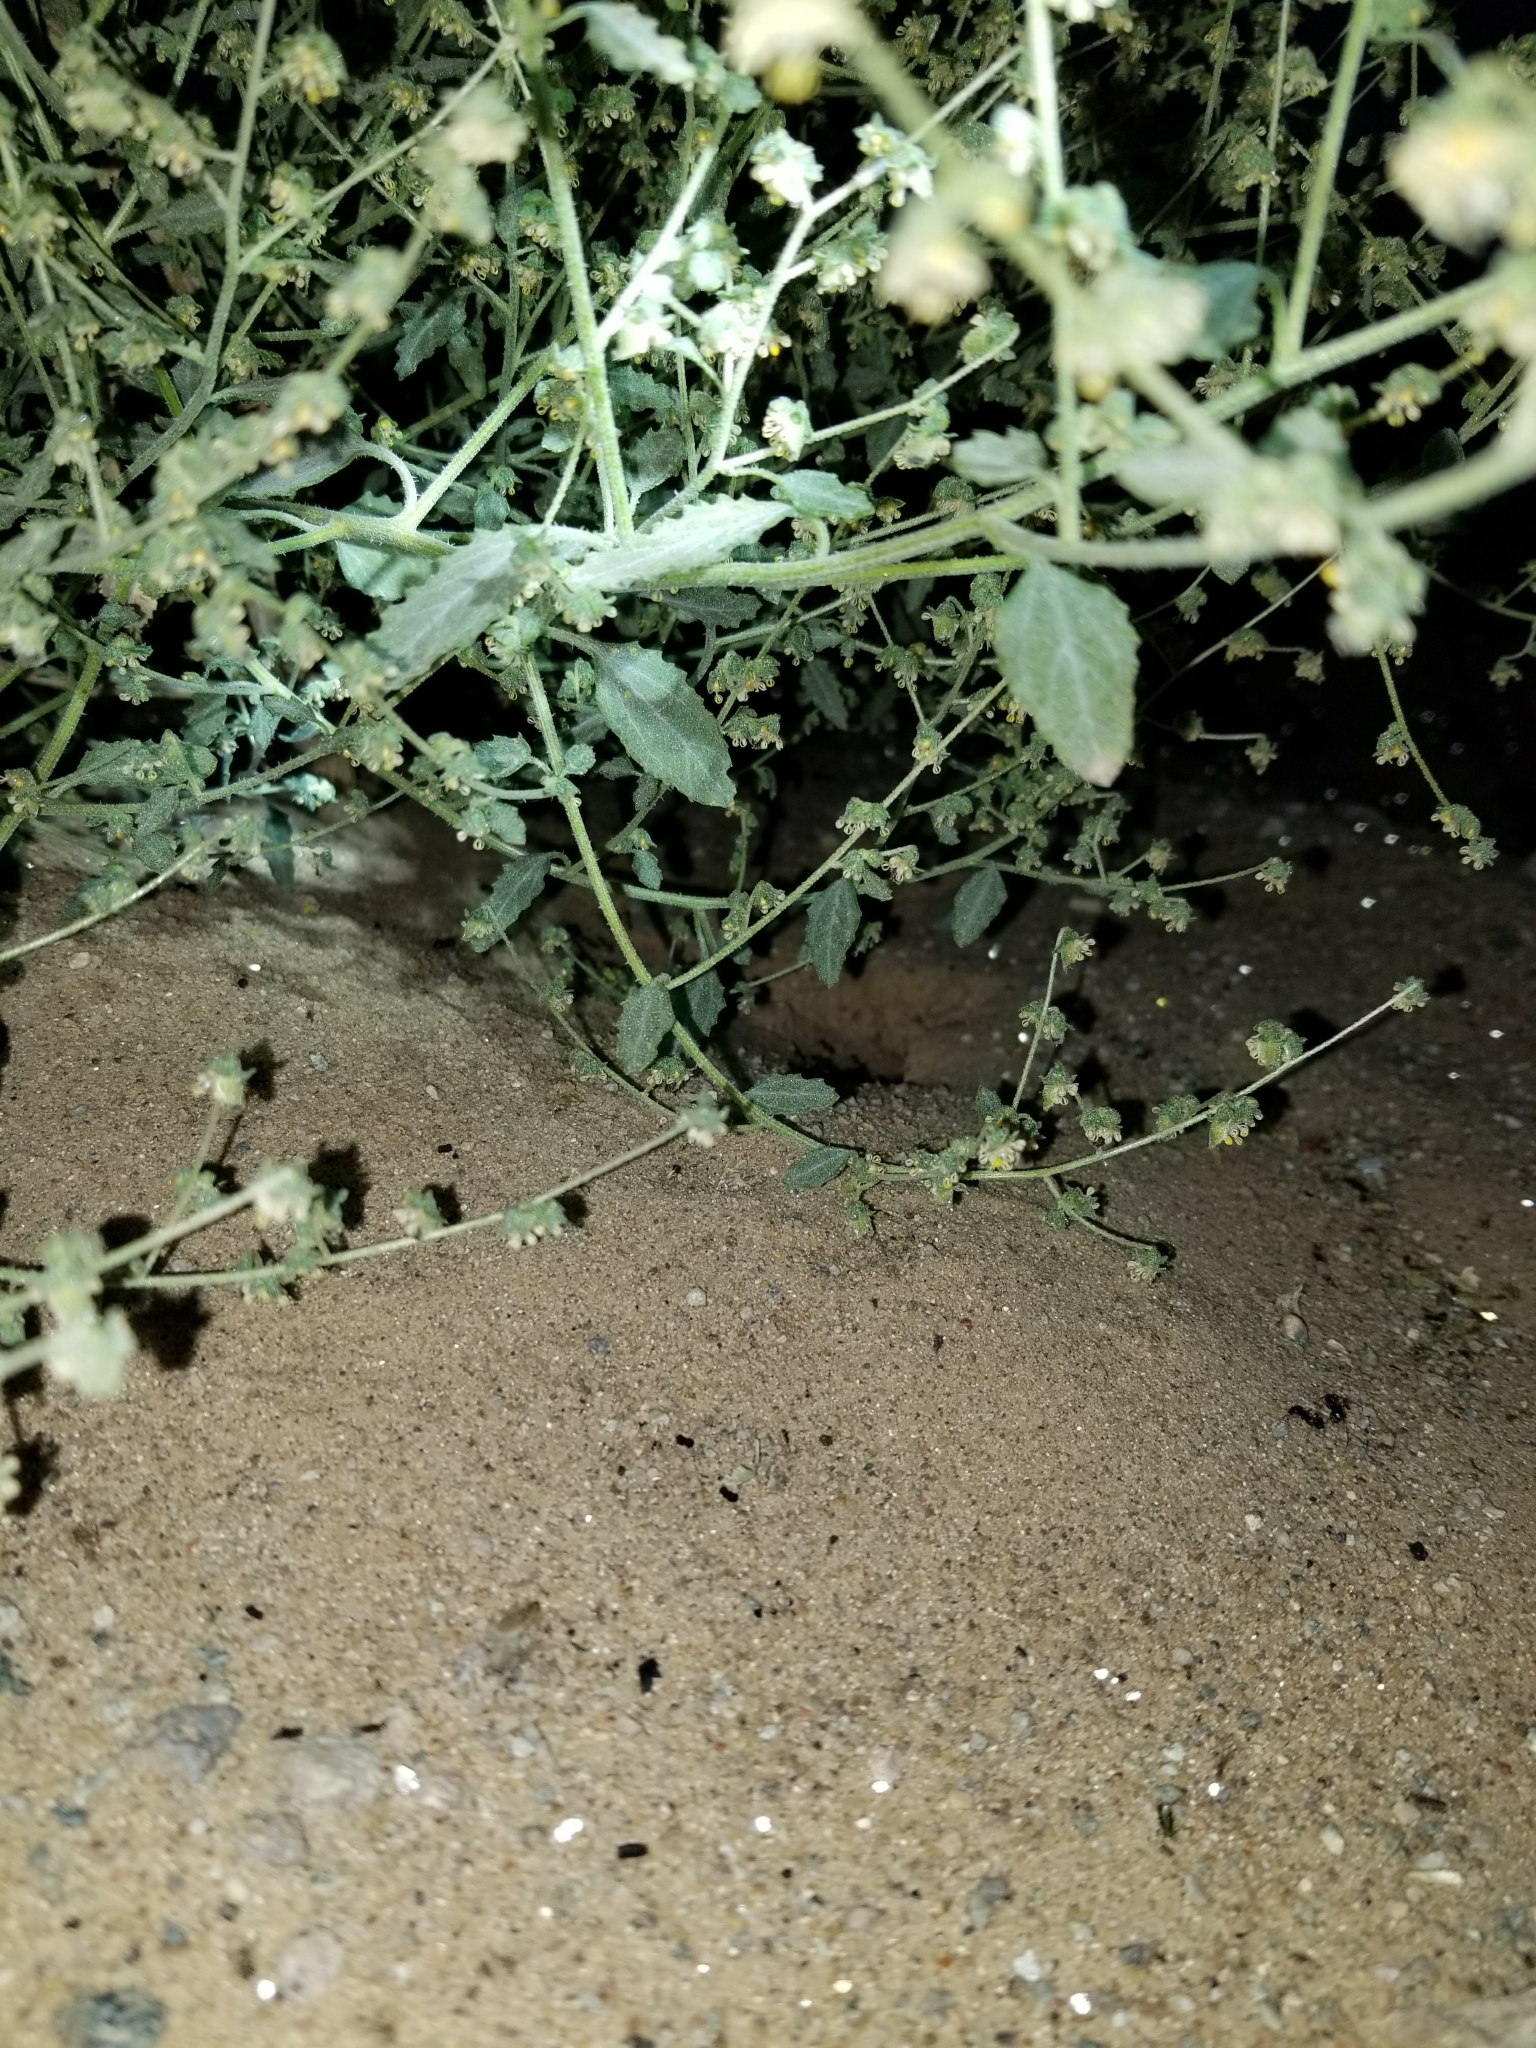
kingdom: Plantae
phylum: Tracheophyta
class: Magnoliopsida
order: Asterales
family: Asteraceae
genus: Dicoria
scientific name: Dicoria canescens
